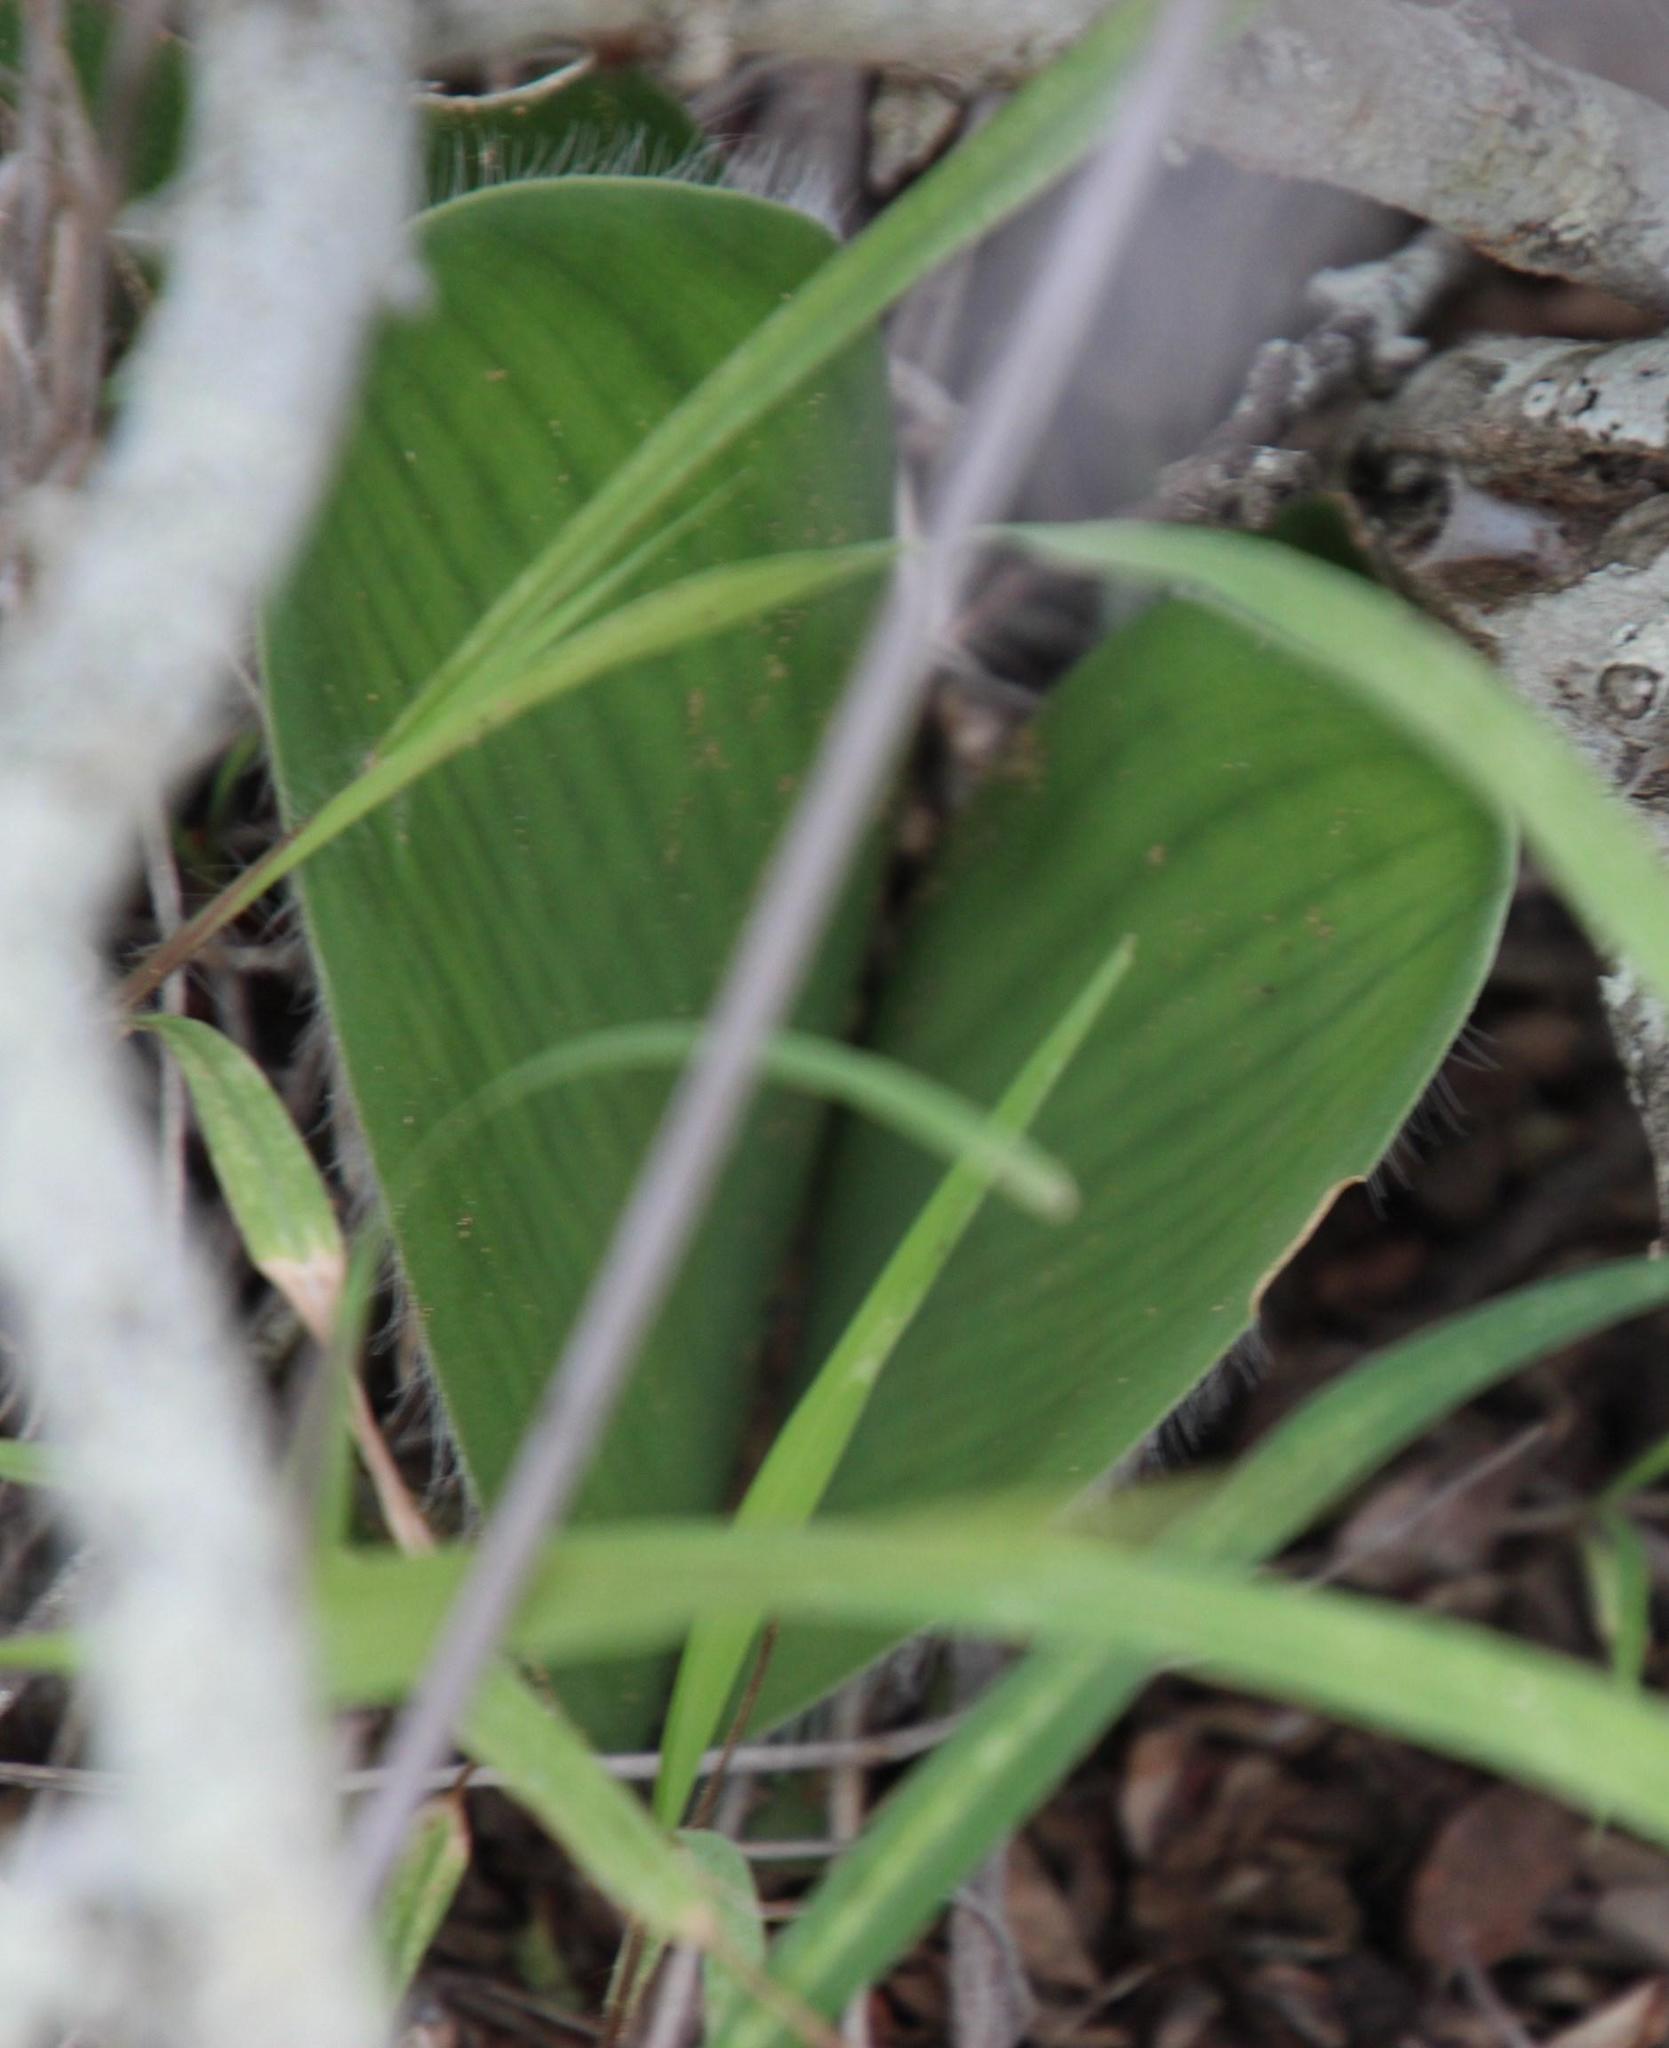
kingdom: Plantae
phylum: Tracheophyta
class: Liliopsida
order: Asparagales
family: Amaryllidaceae
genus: Haemanthus
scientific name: Haemanthus humilis
